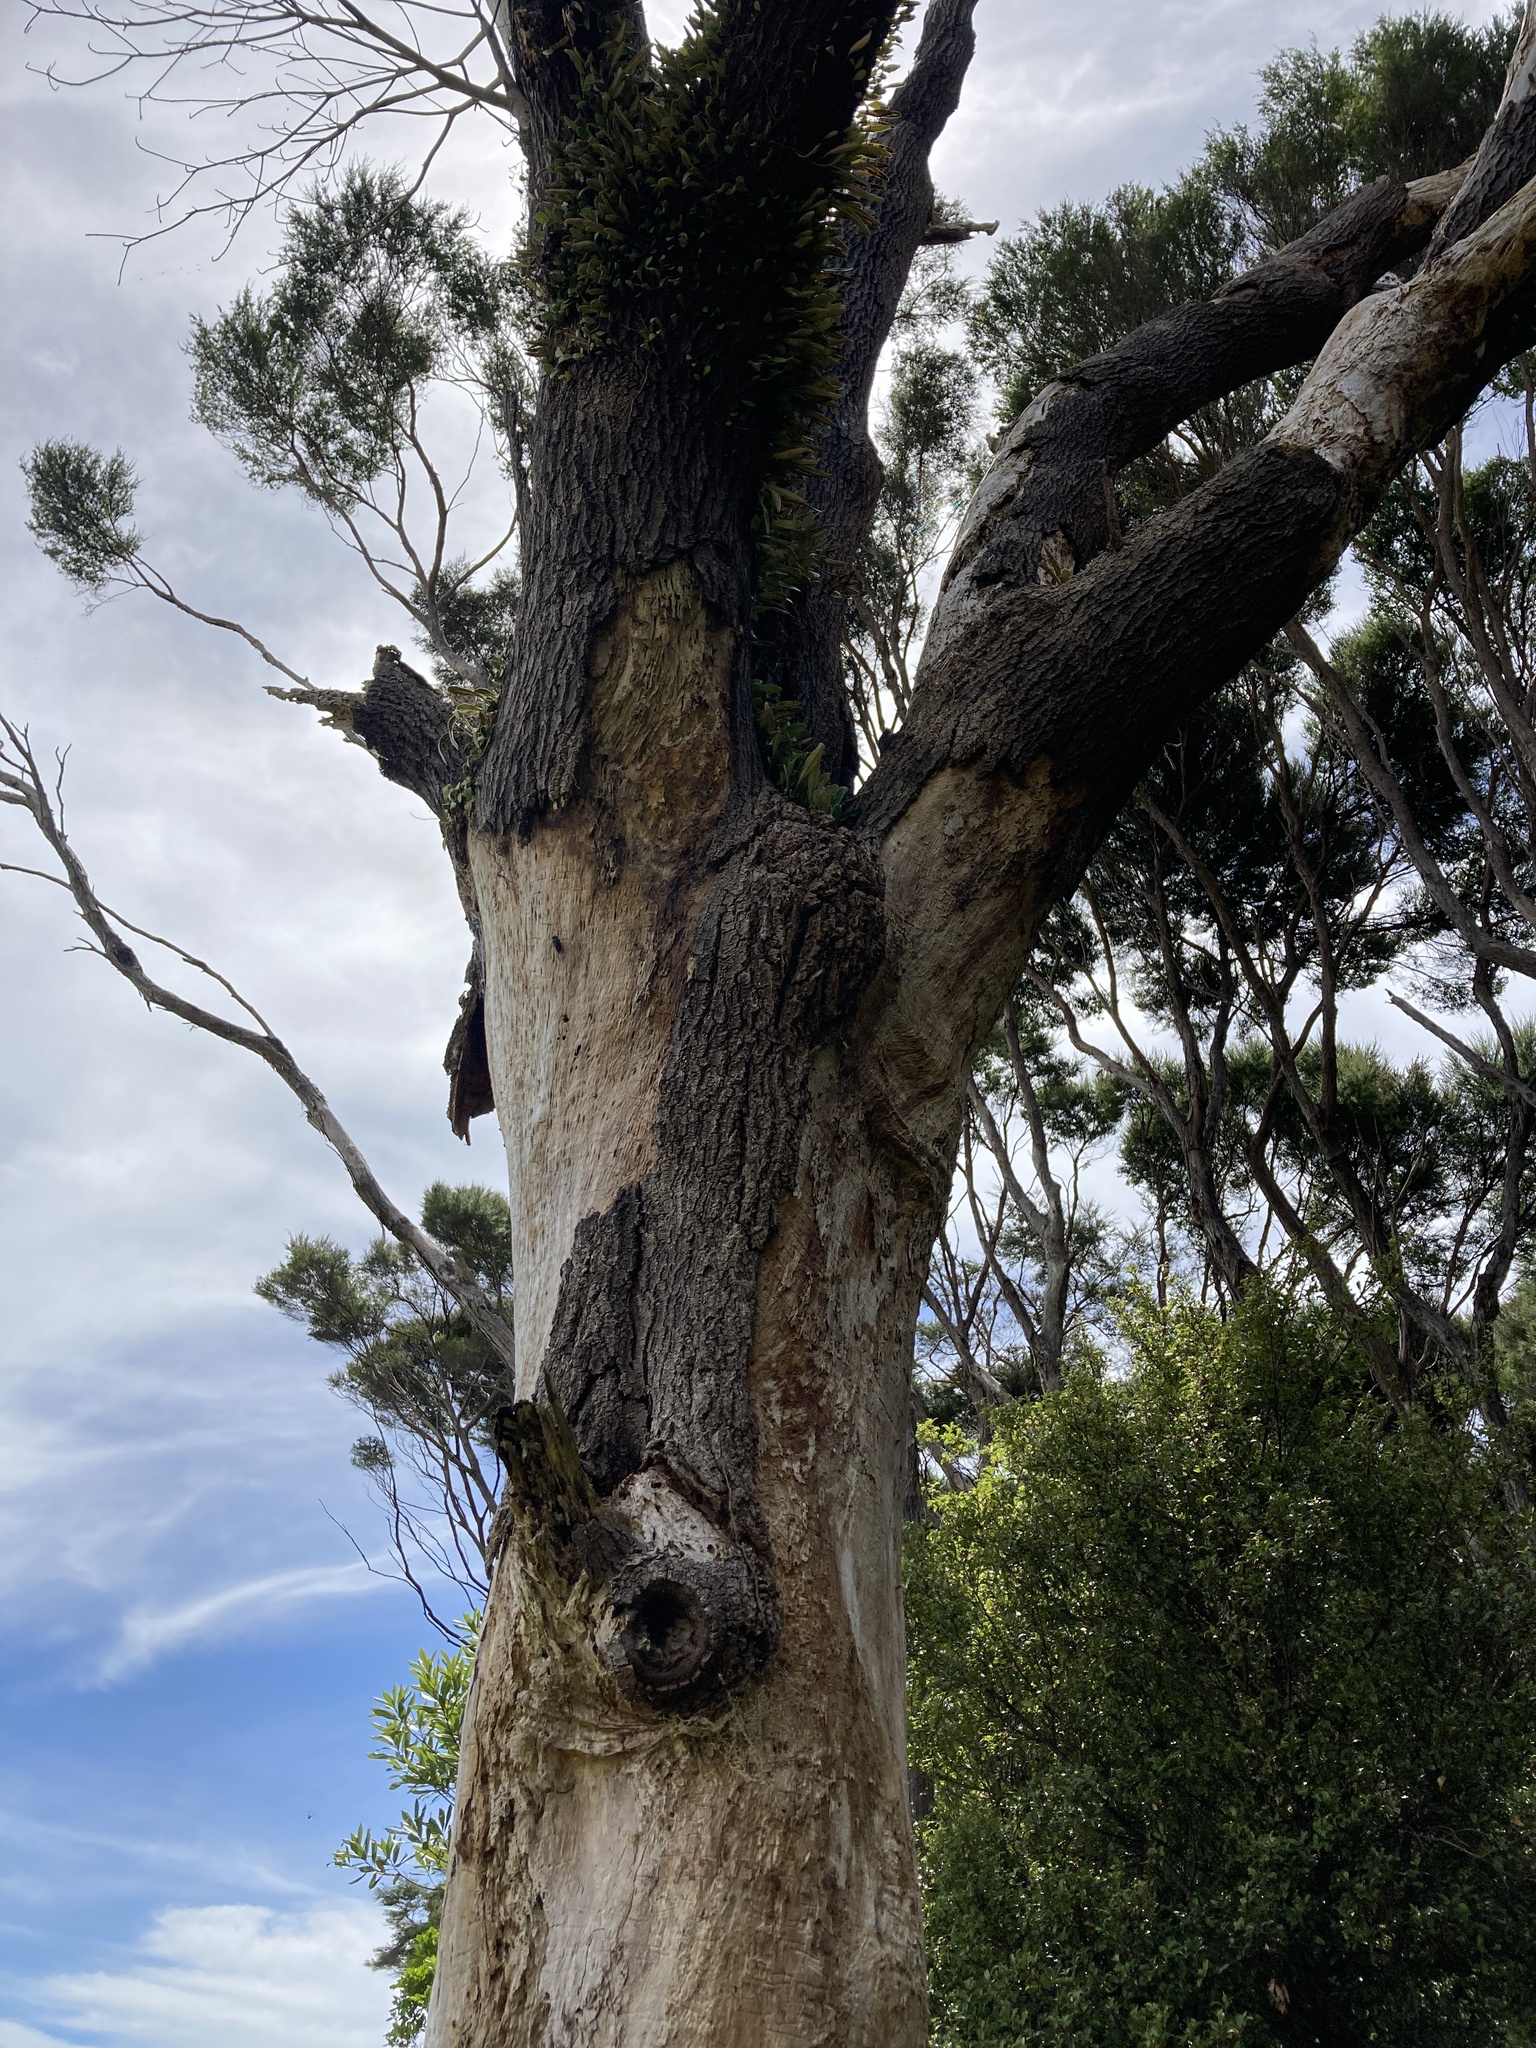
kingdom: Plantae
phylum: Tracheophyta
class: Magnoliopsida
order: Oxalidales
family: Elaeocarpaceae
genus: Elaeocarpus
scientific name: Elaeocarpus dentatus
